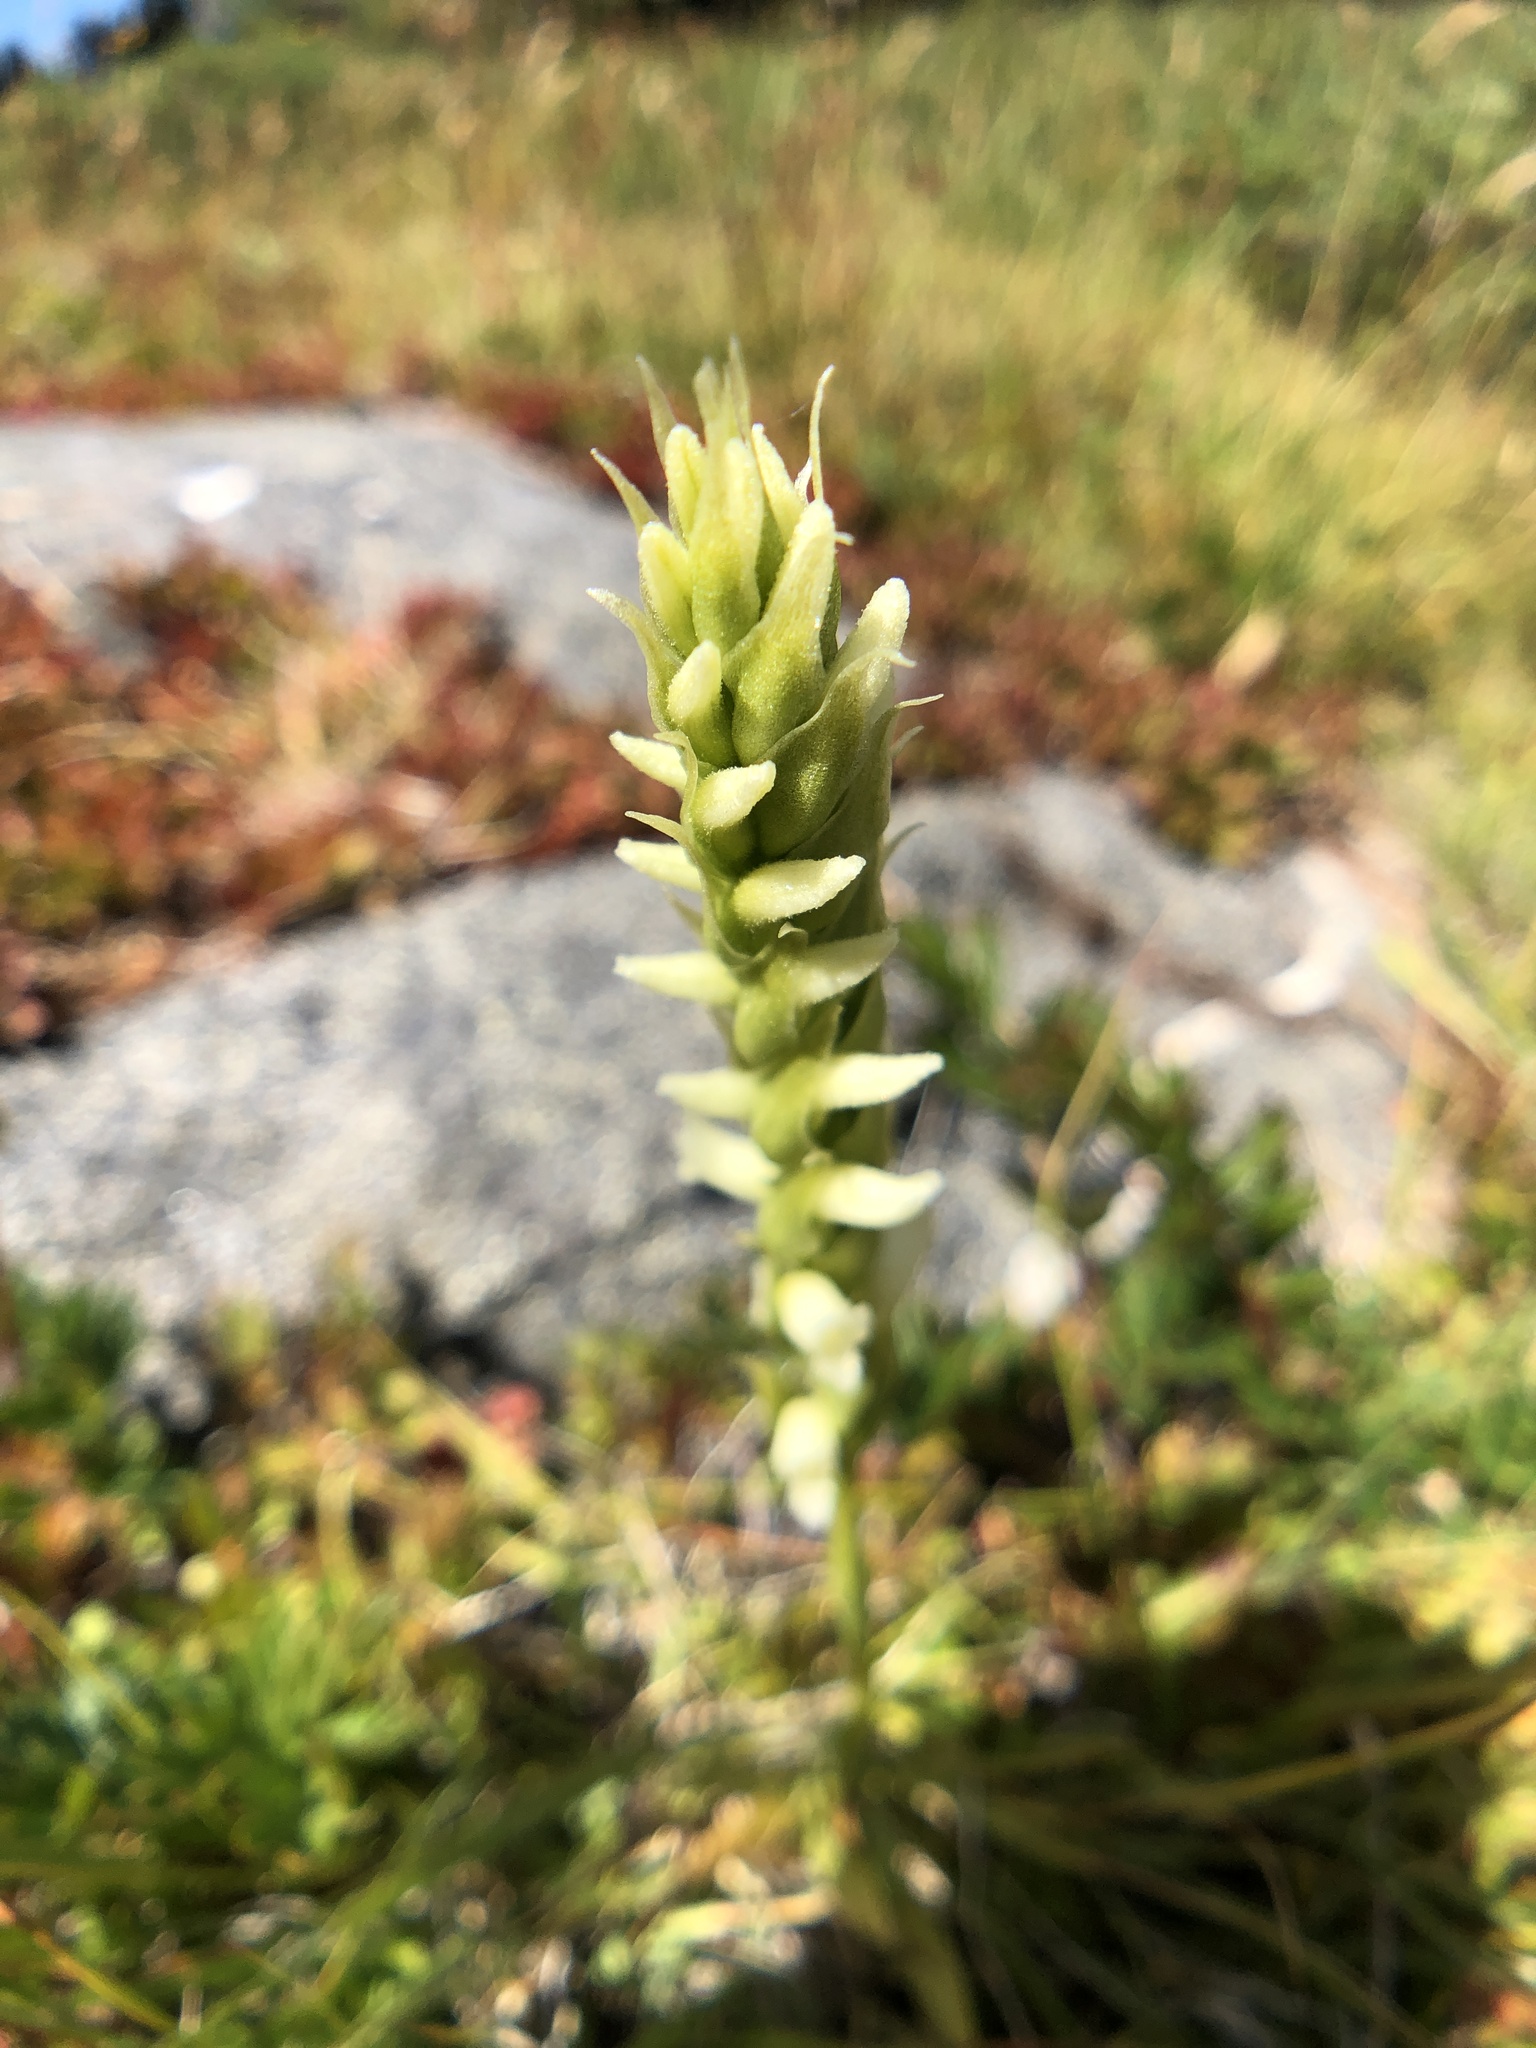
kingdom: Plantae
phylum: Tracheophyta
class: Liliopsida
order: Asparagales
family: Orchidaceae
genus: Spiranthes
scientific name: Spiranthes romanzoffiana
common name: Irish lady's-tresses
